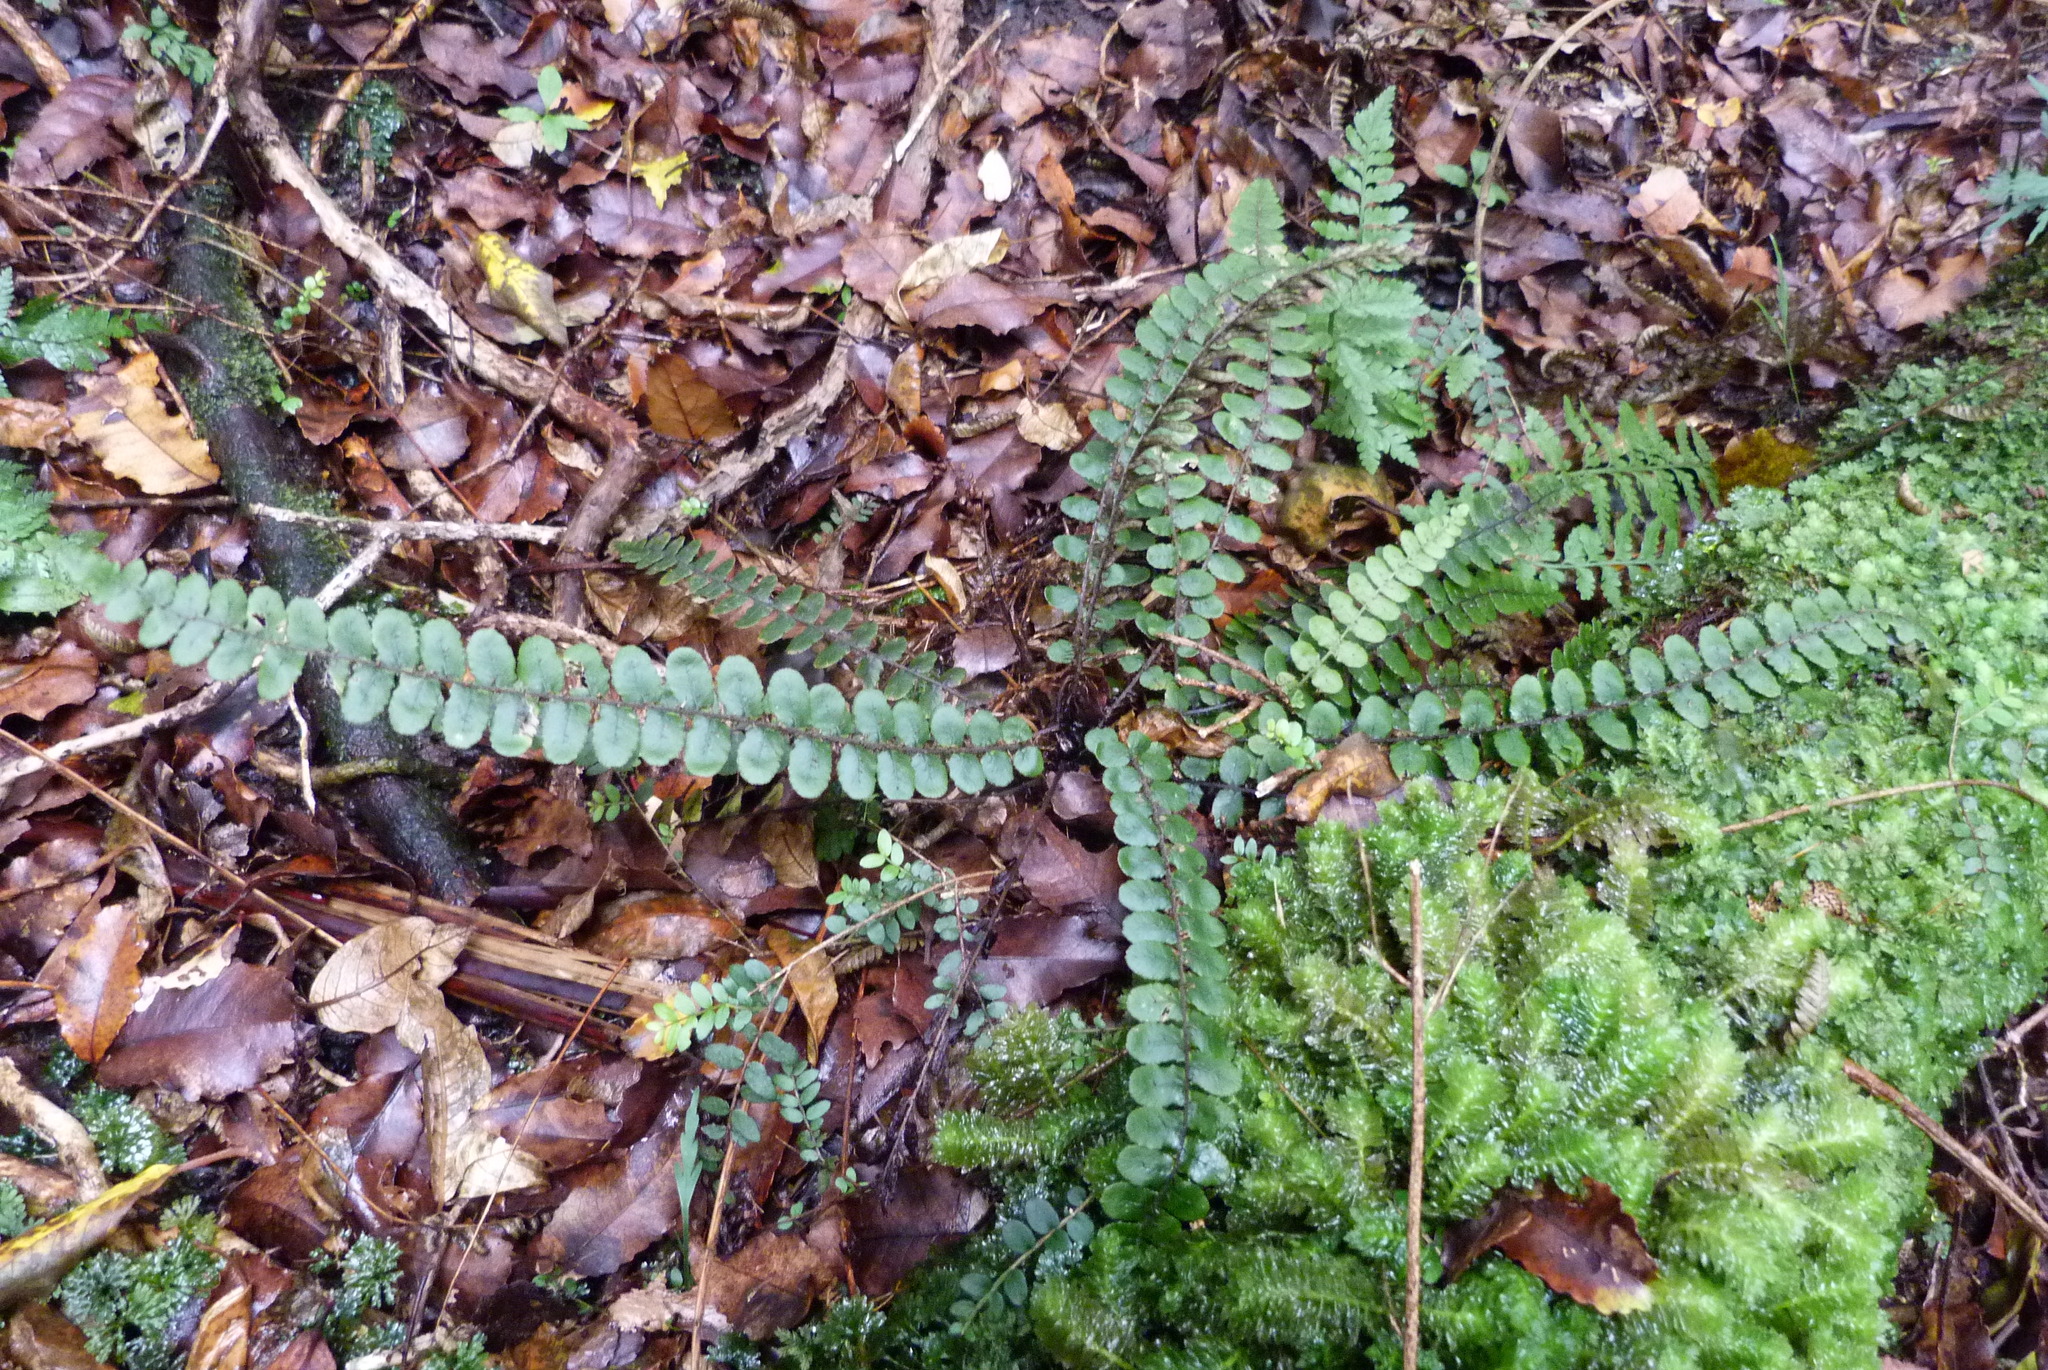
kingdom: Plantae
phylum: Tracheophyta
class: Polypodiopsida
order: Polypodiales
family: Blechnaceae
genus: Cranfillia
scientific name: Cranfillia fluviatilis
